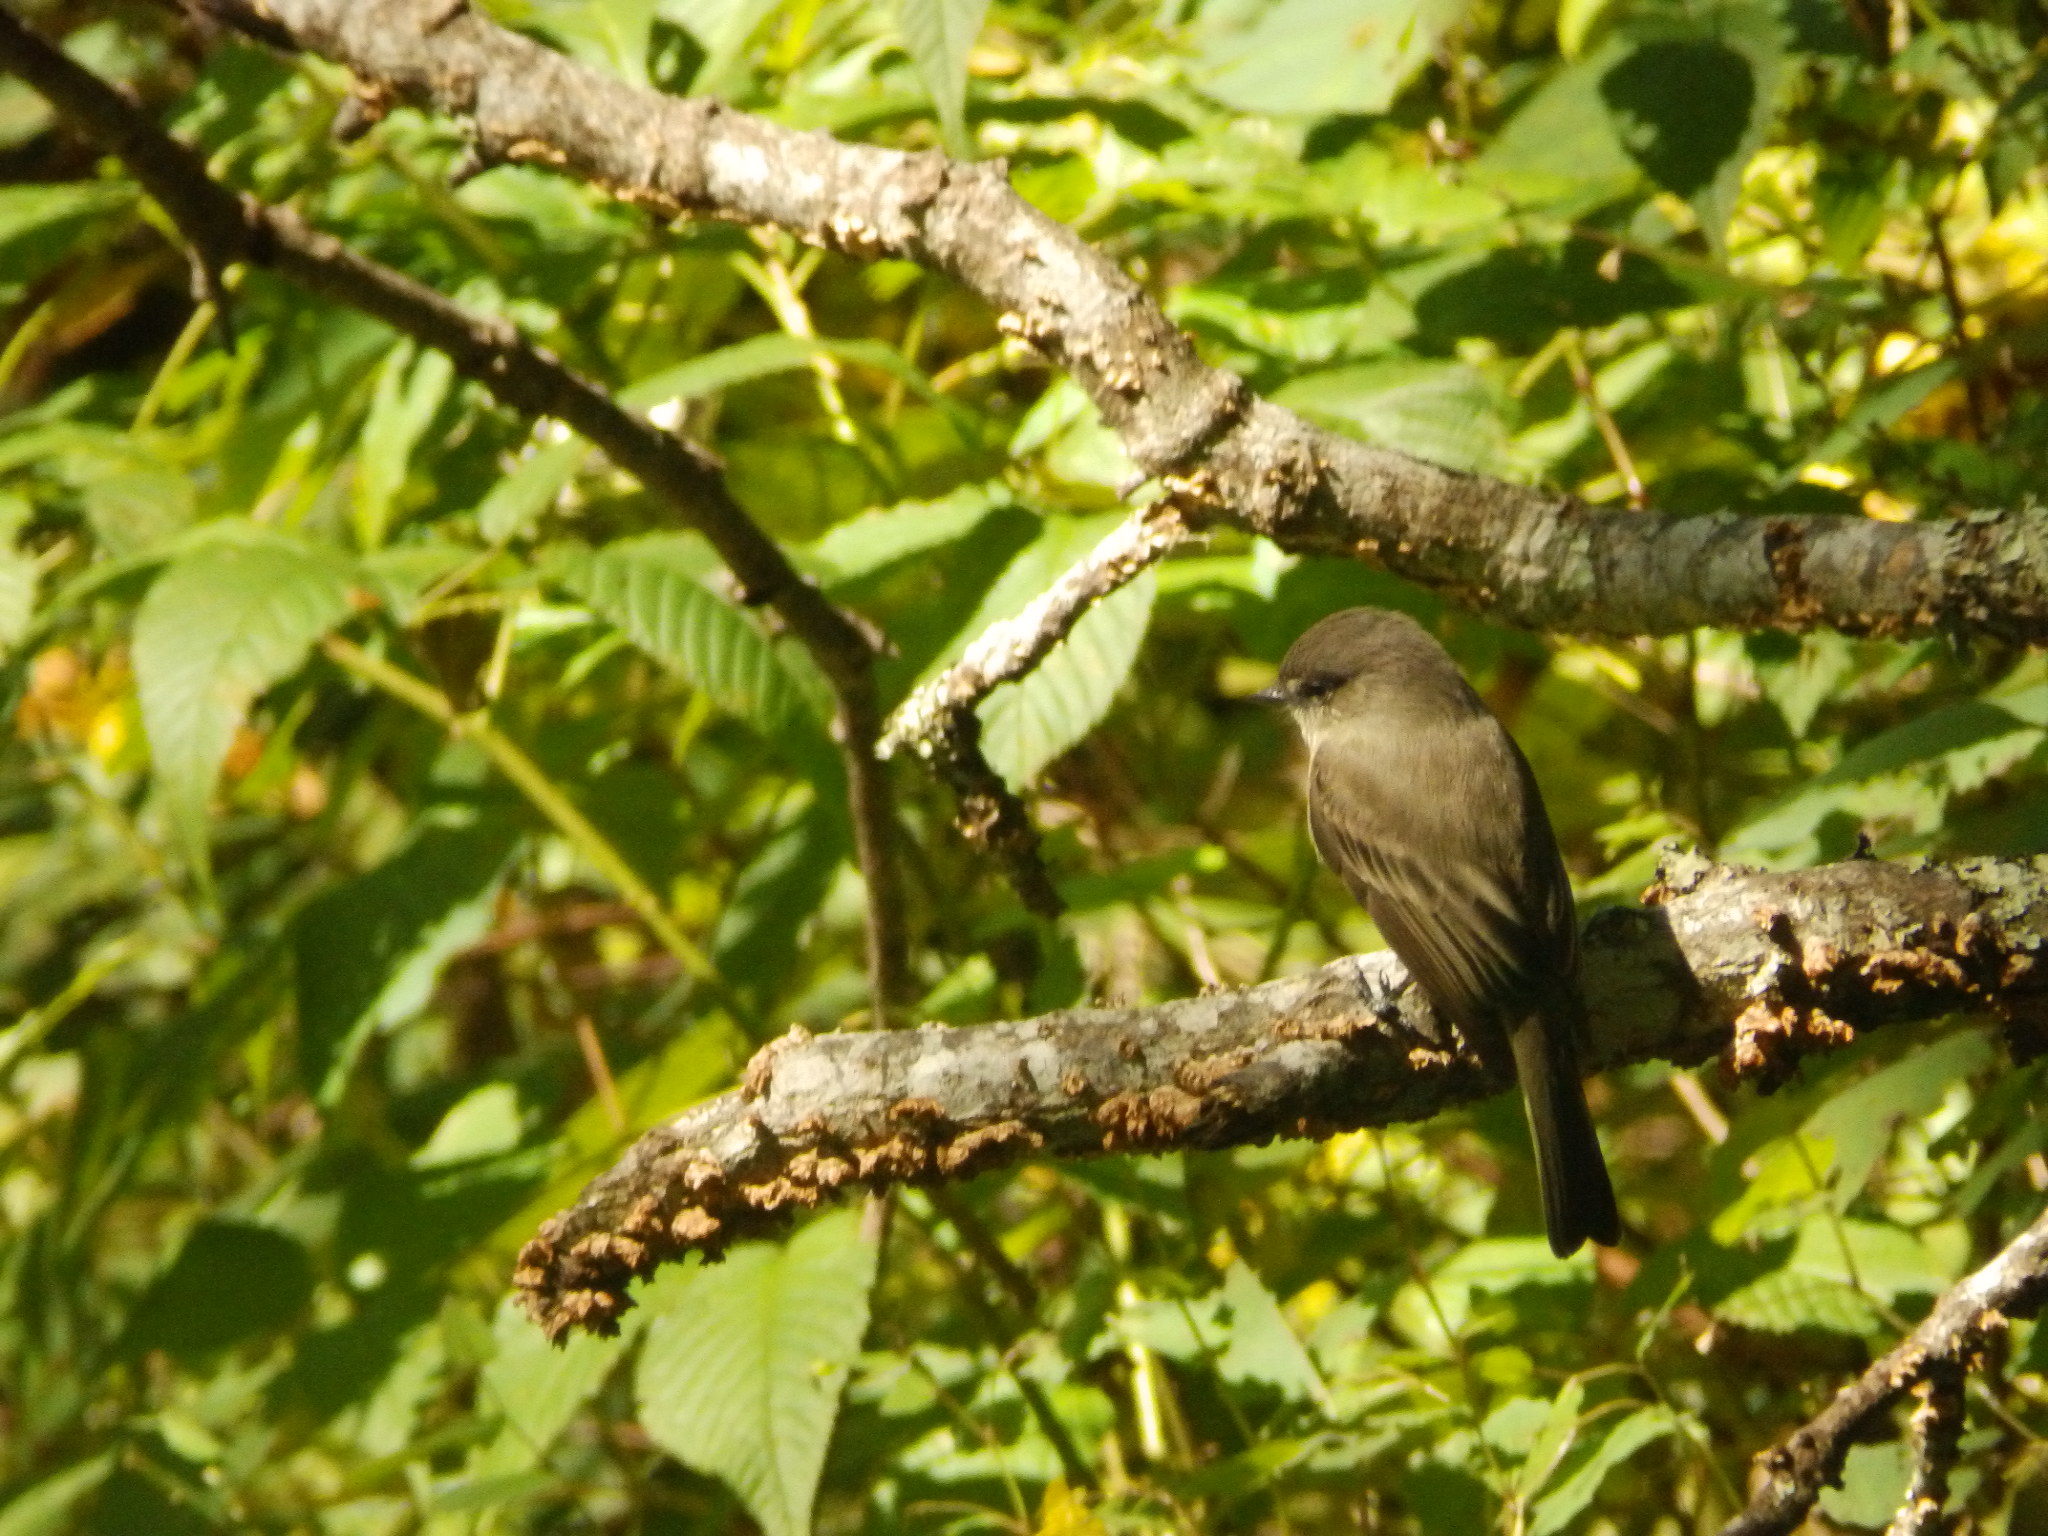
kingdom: Animalia
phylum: Chordata
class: Aves
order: Passeriformes
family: Tyrannidae
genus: Sayornis
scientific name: Sayornis phoebe
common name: Eastern phoebe
